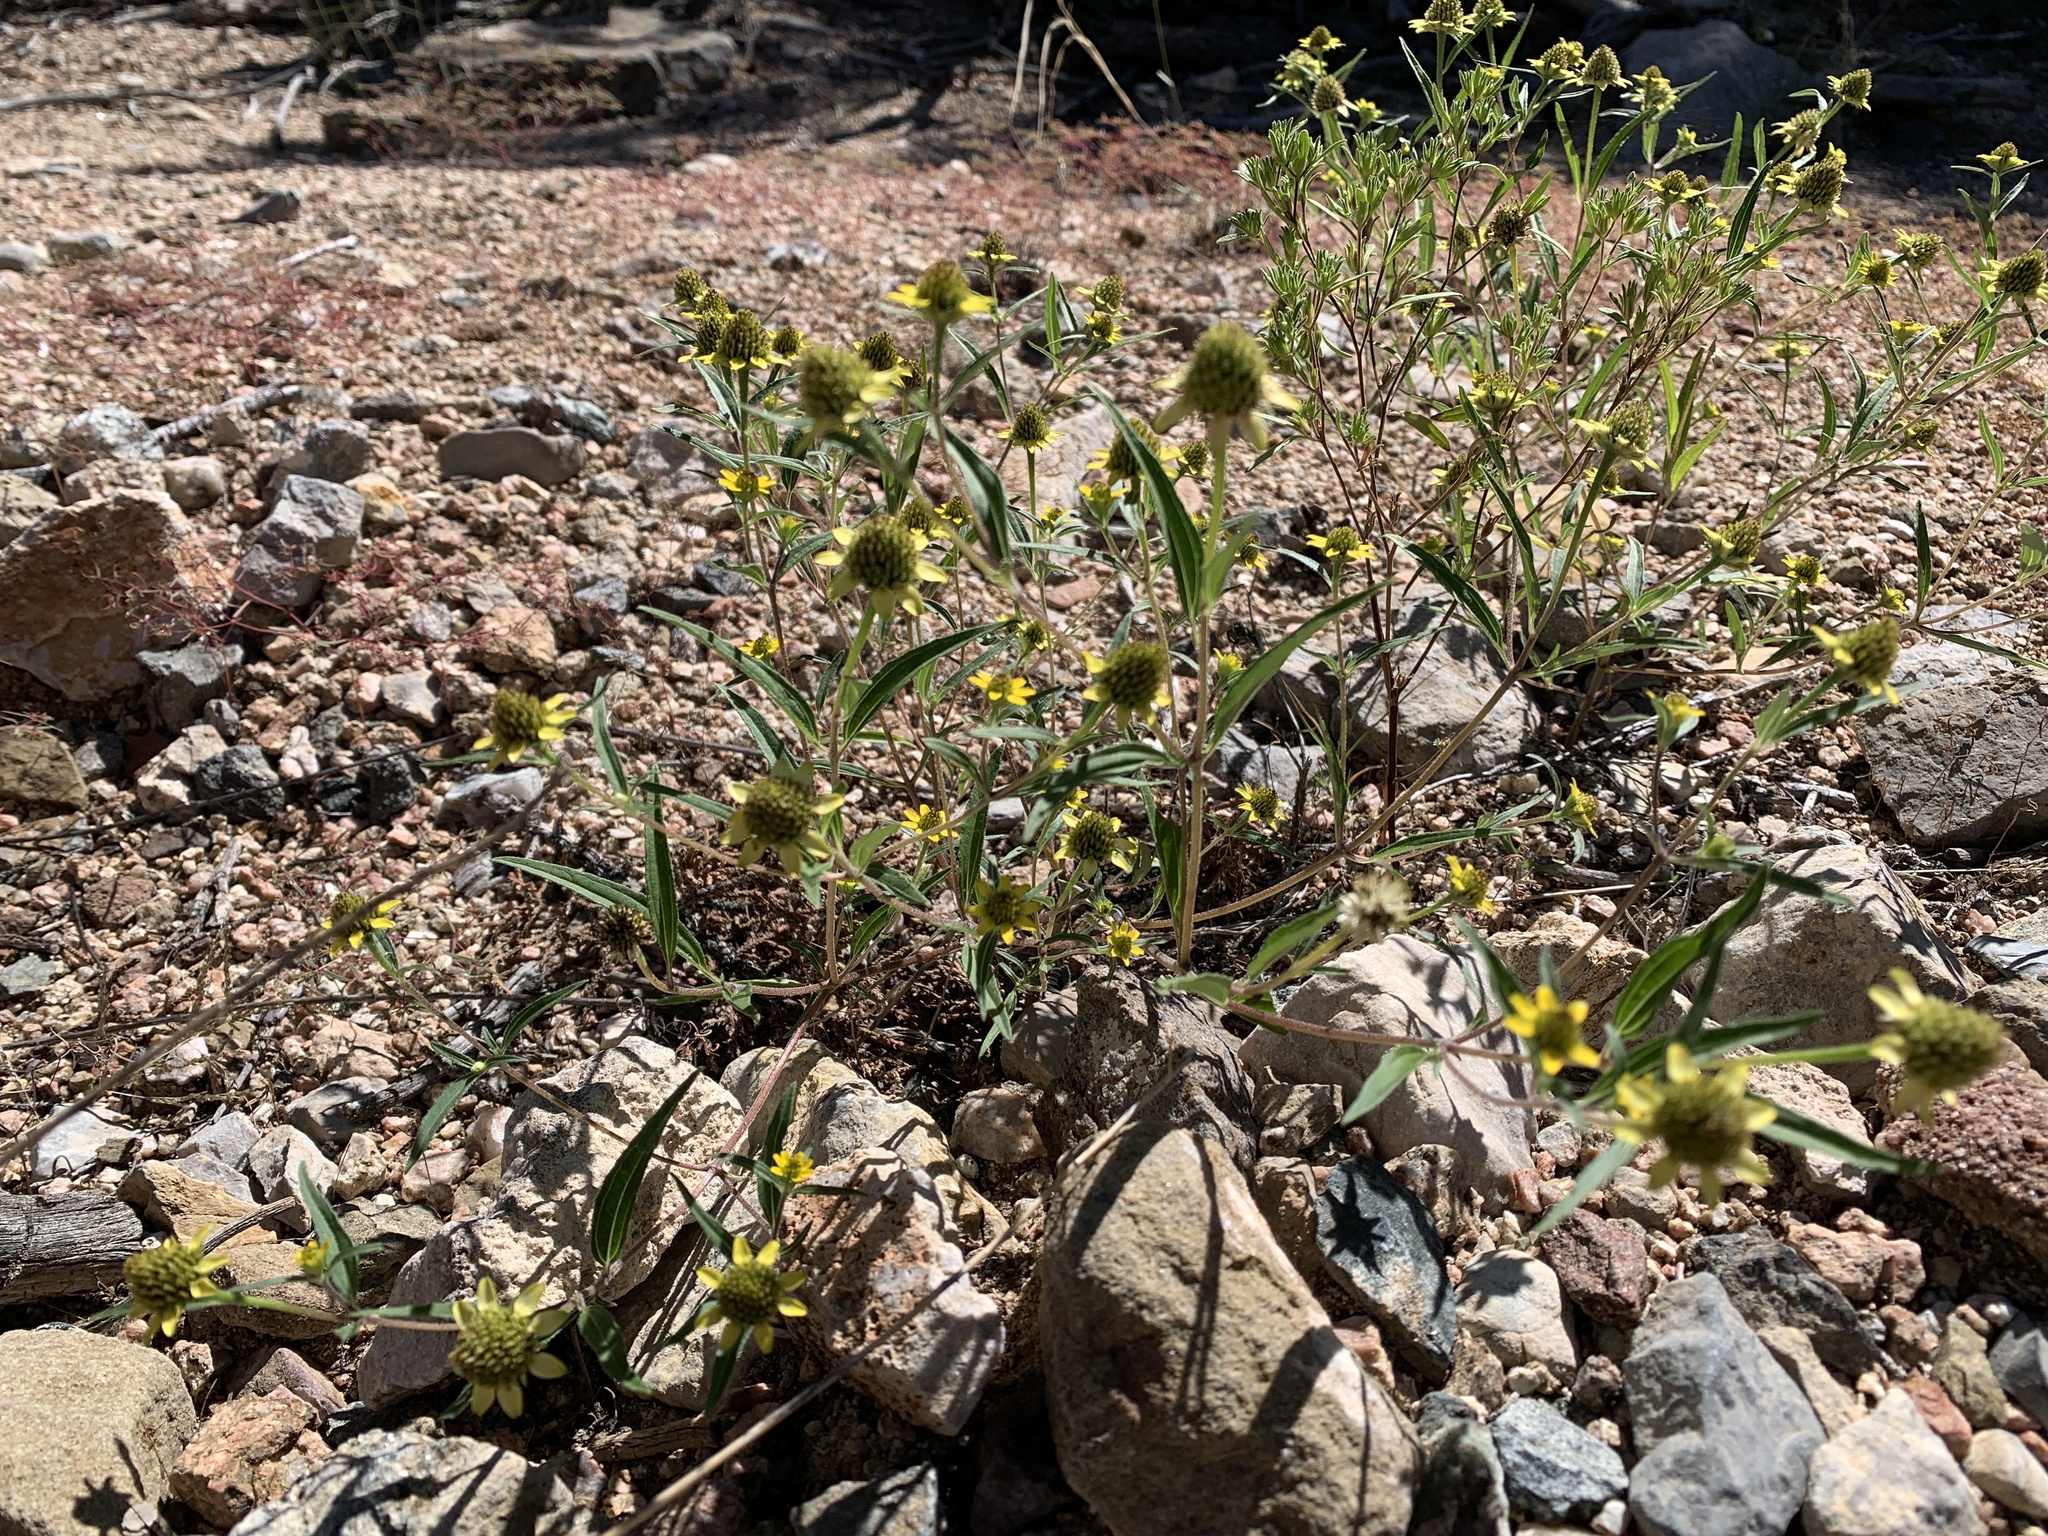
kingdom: Plantae
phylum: Tracheophyta
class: Magnoliopsida
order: Asterales
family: Asteraceae
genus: Sanvitalia
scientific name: Sanvitalia abertii
